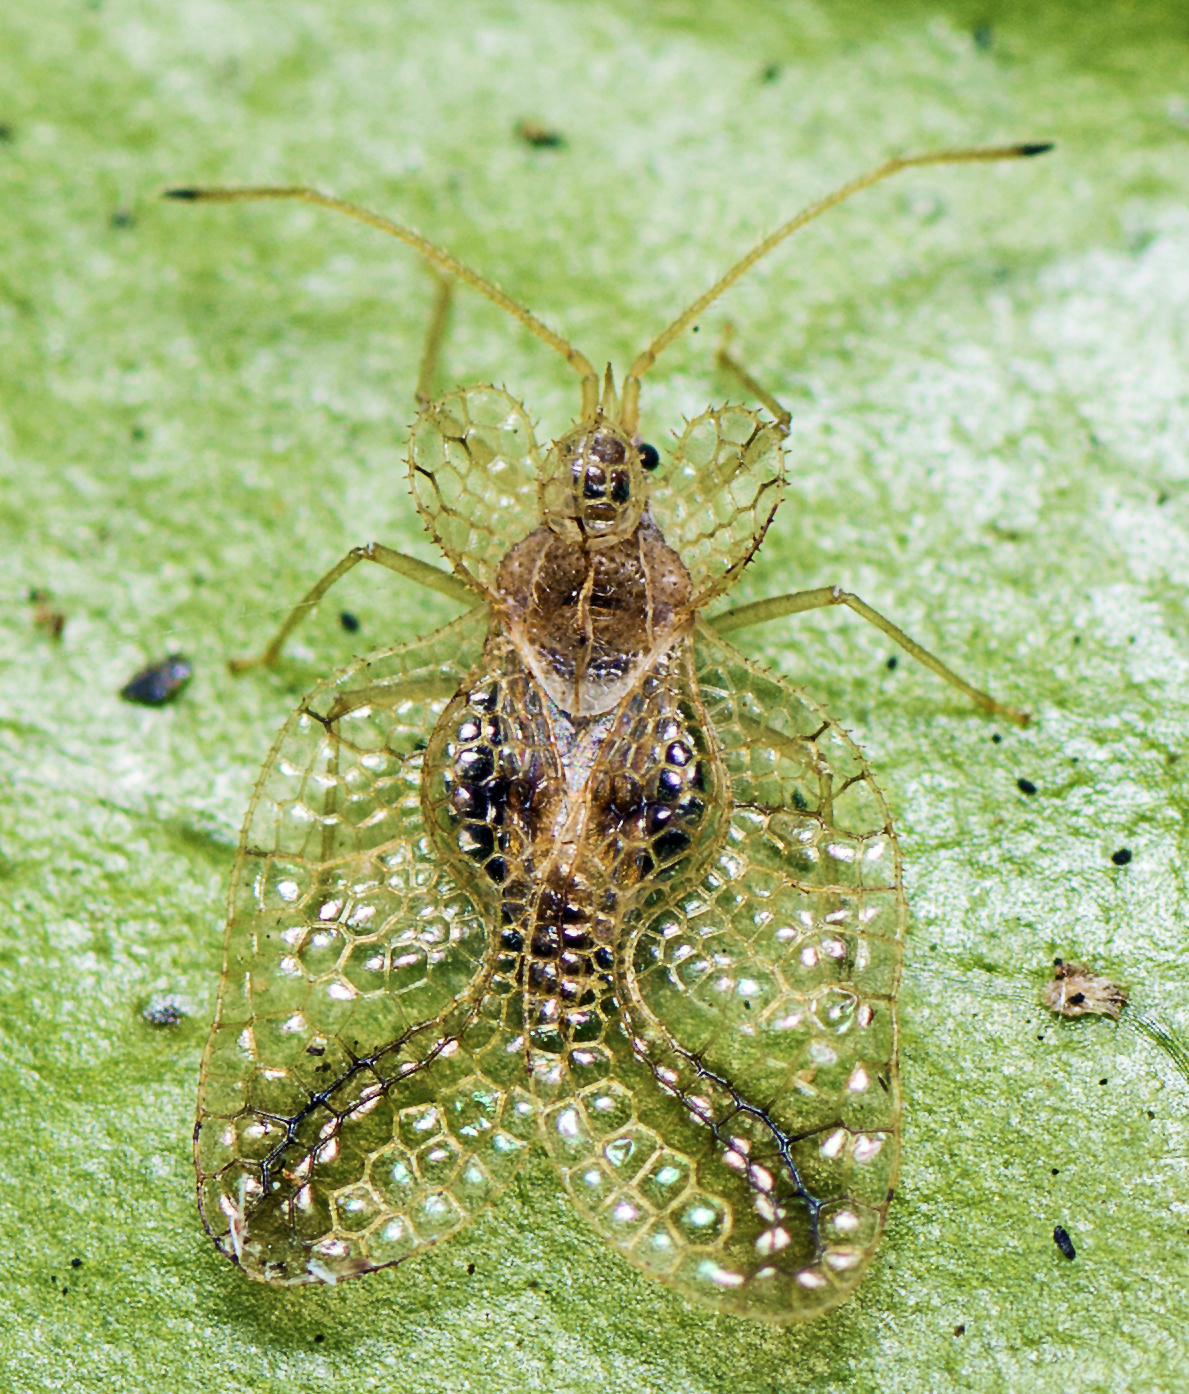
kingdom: Animalia
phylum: Arthropoda
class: Insecta
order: Hemiptera
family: Tingidae
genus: Lepturga
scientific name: Lepturga magnifica
